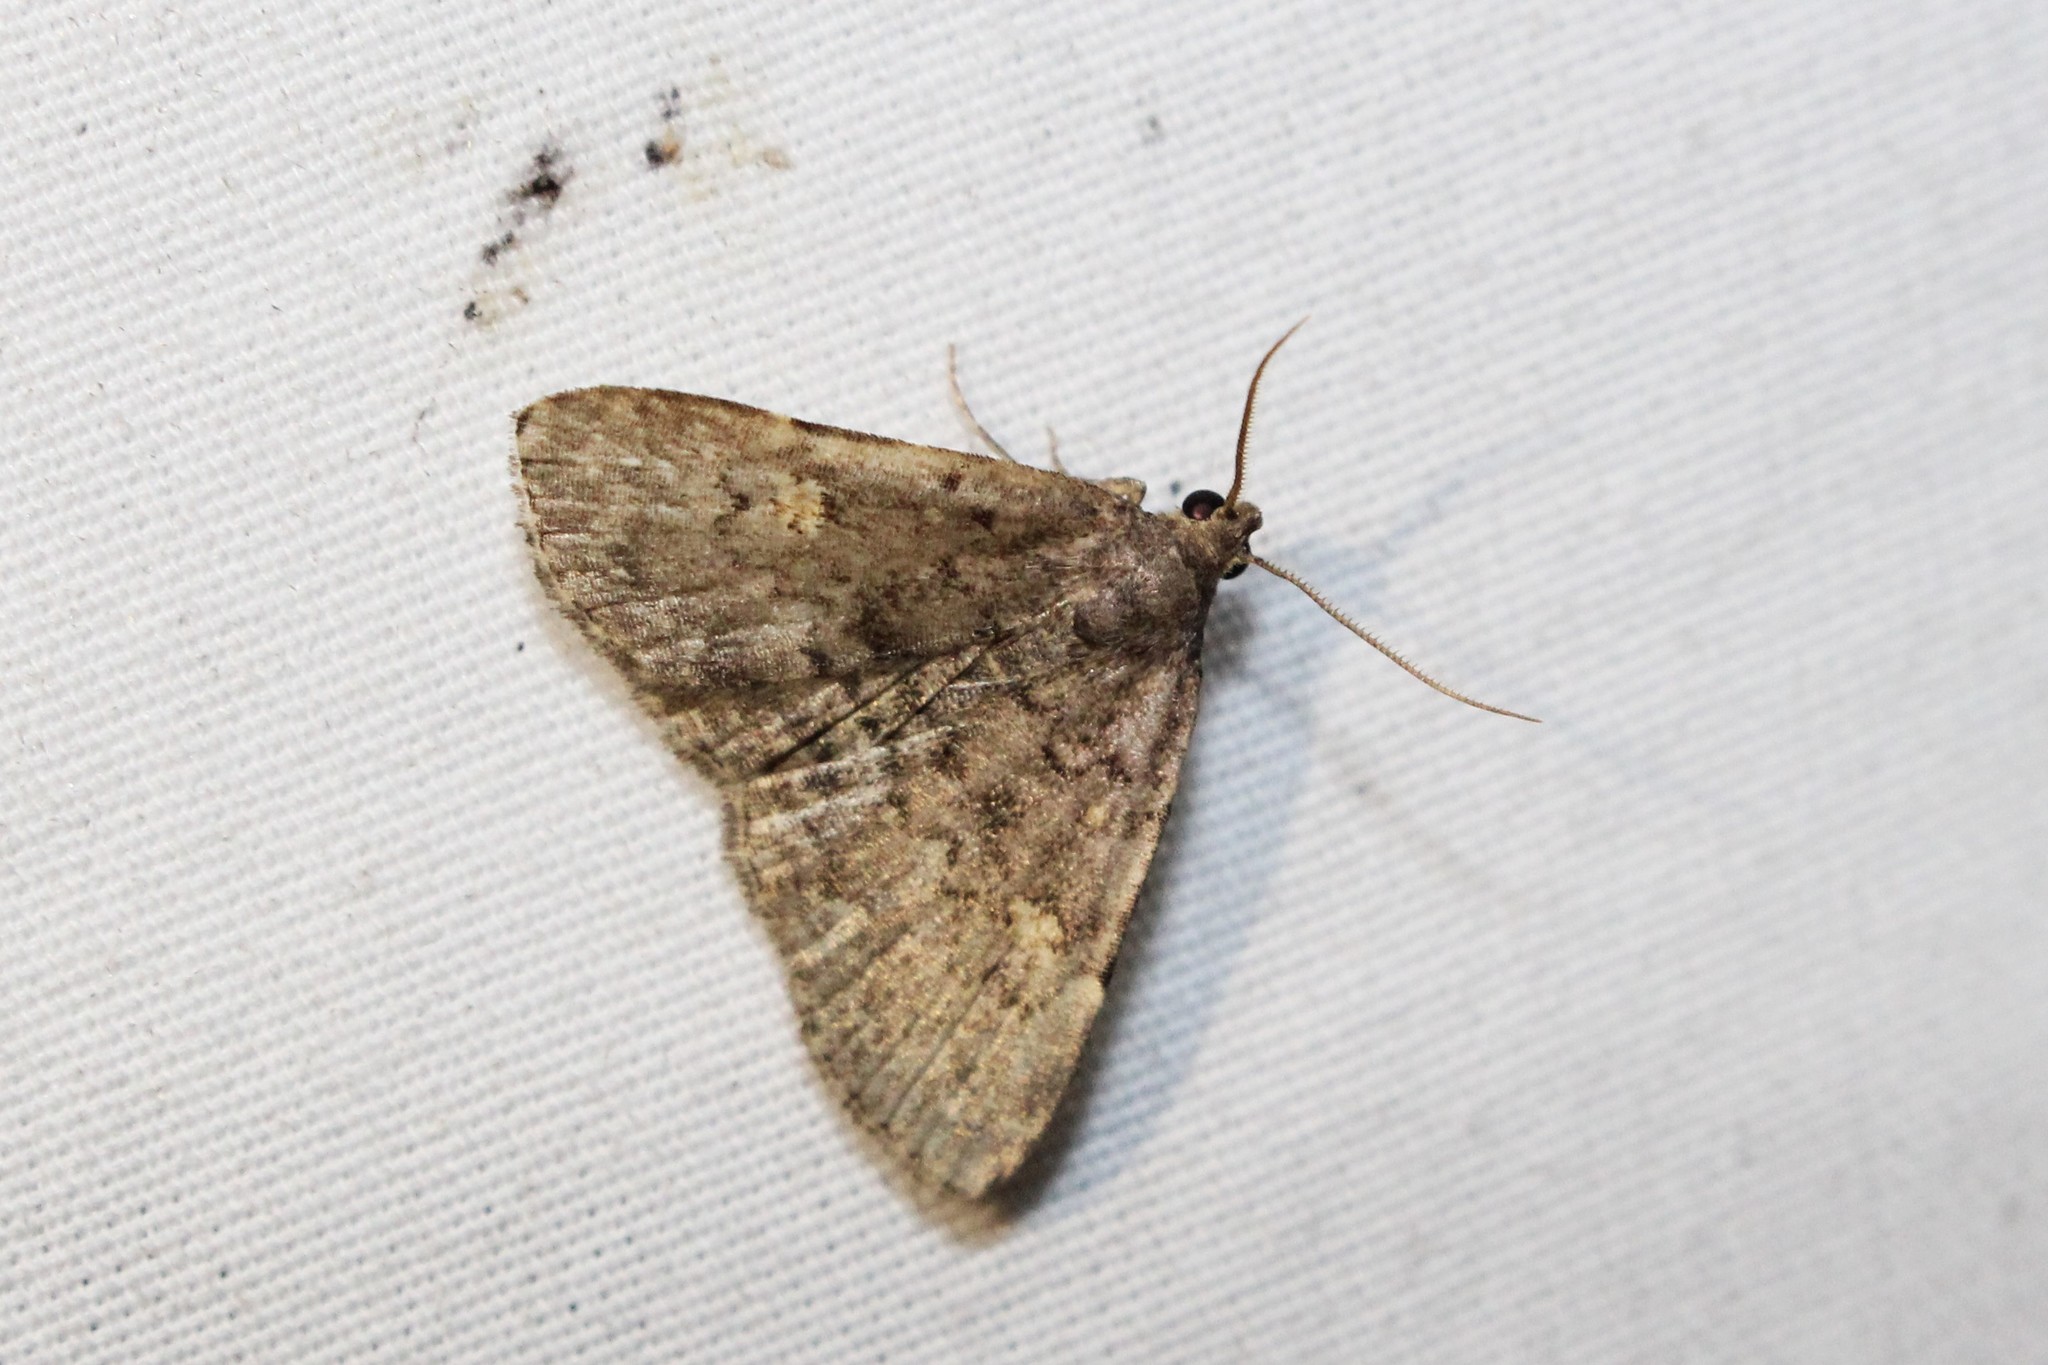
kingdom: Animalia
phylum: Arthropoda
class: Insecta
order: Lepidoptera
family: Erebidae
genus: Idia
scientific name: Idia aemula
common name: Common idia moth
